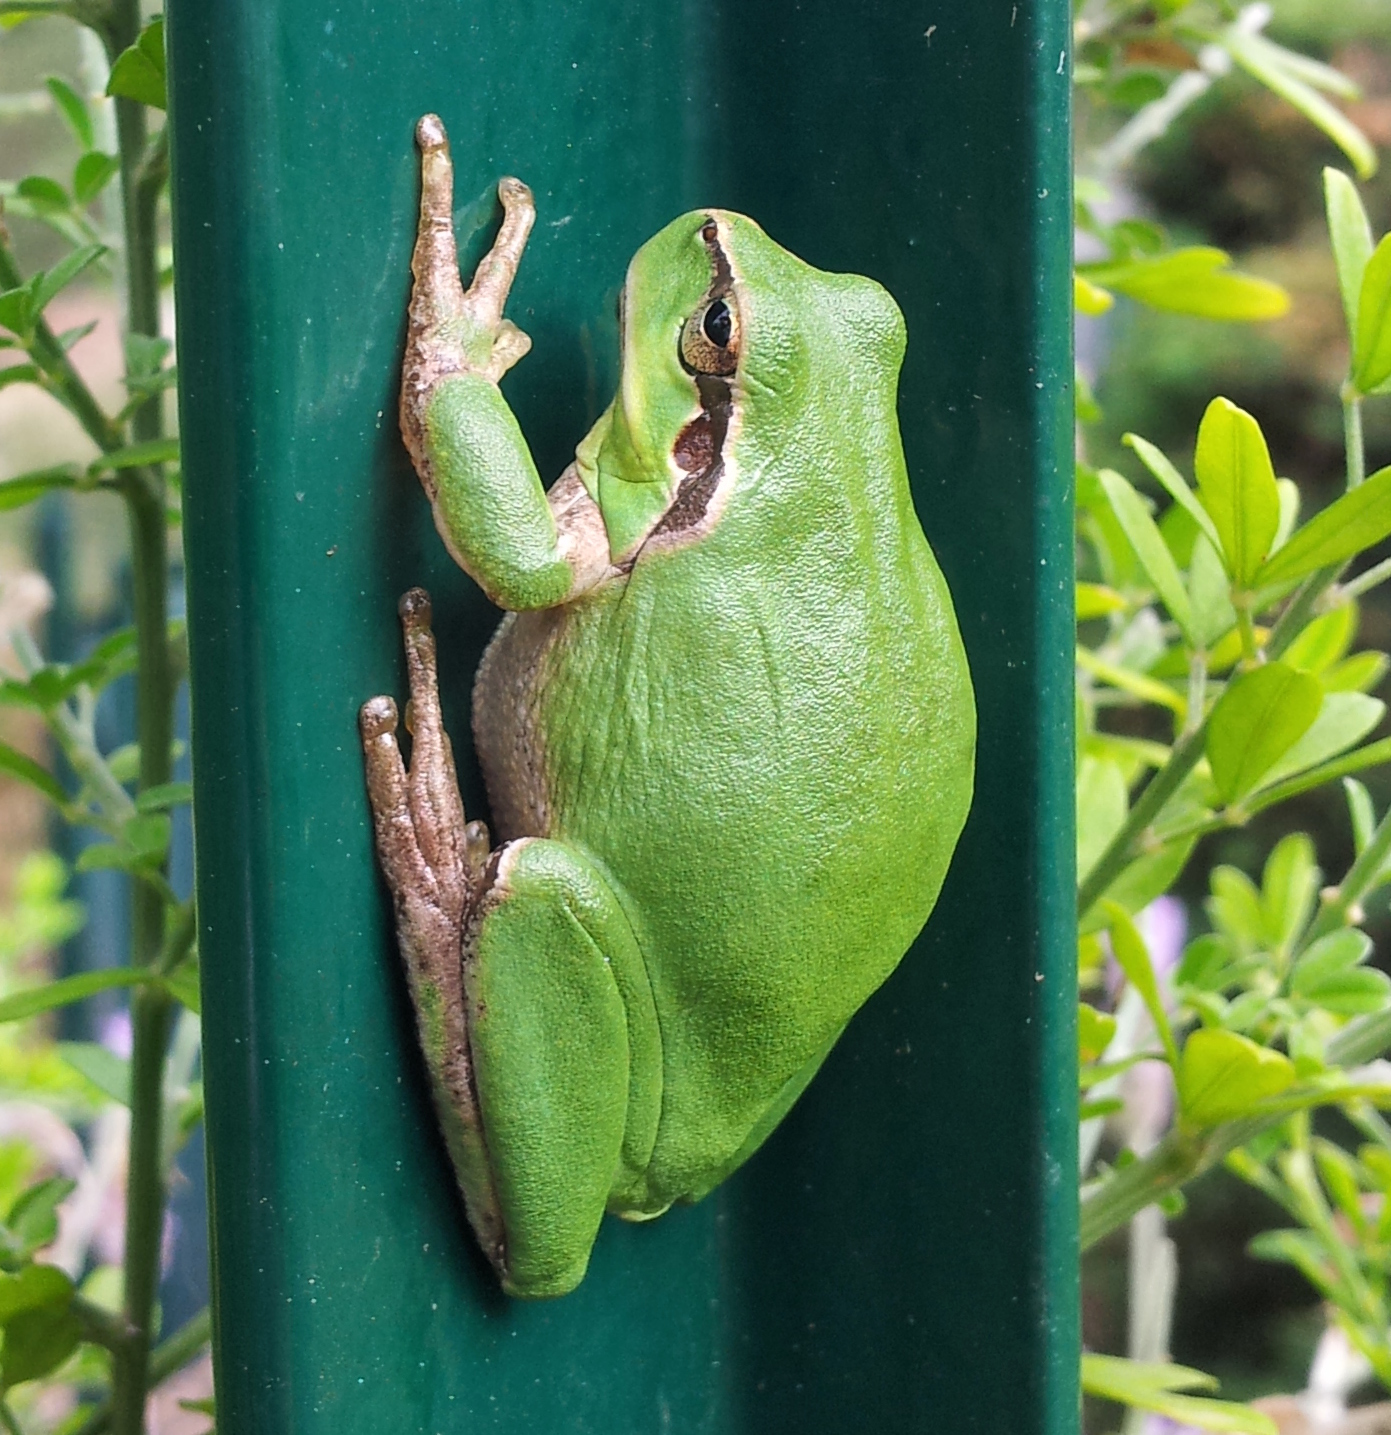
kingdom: Animalia
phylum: Chordata
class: Amphibia
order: Anura
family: Hylidae
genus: Hyla
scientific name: Hyla meridionalis
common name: Stripeless tree frog
